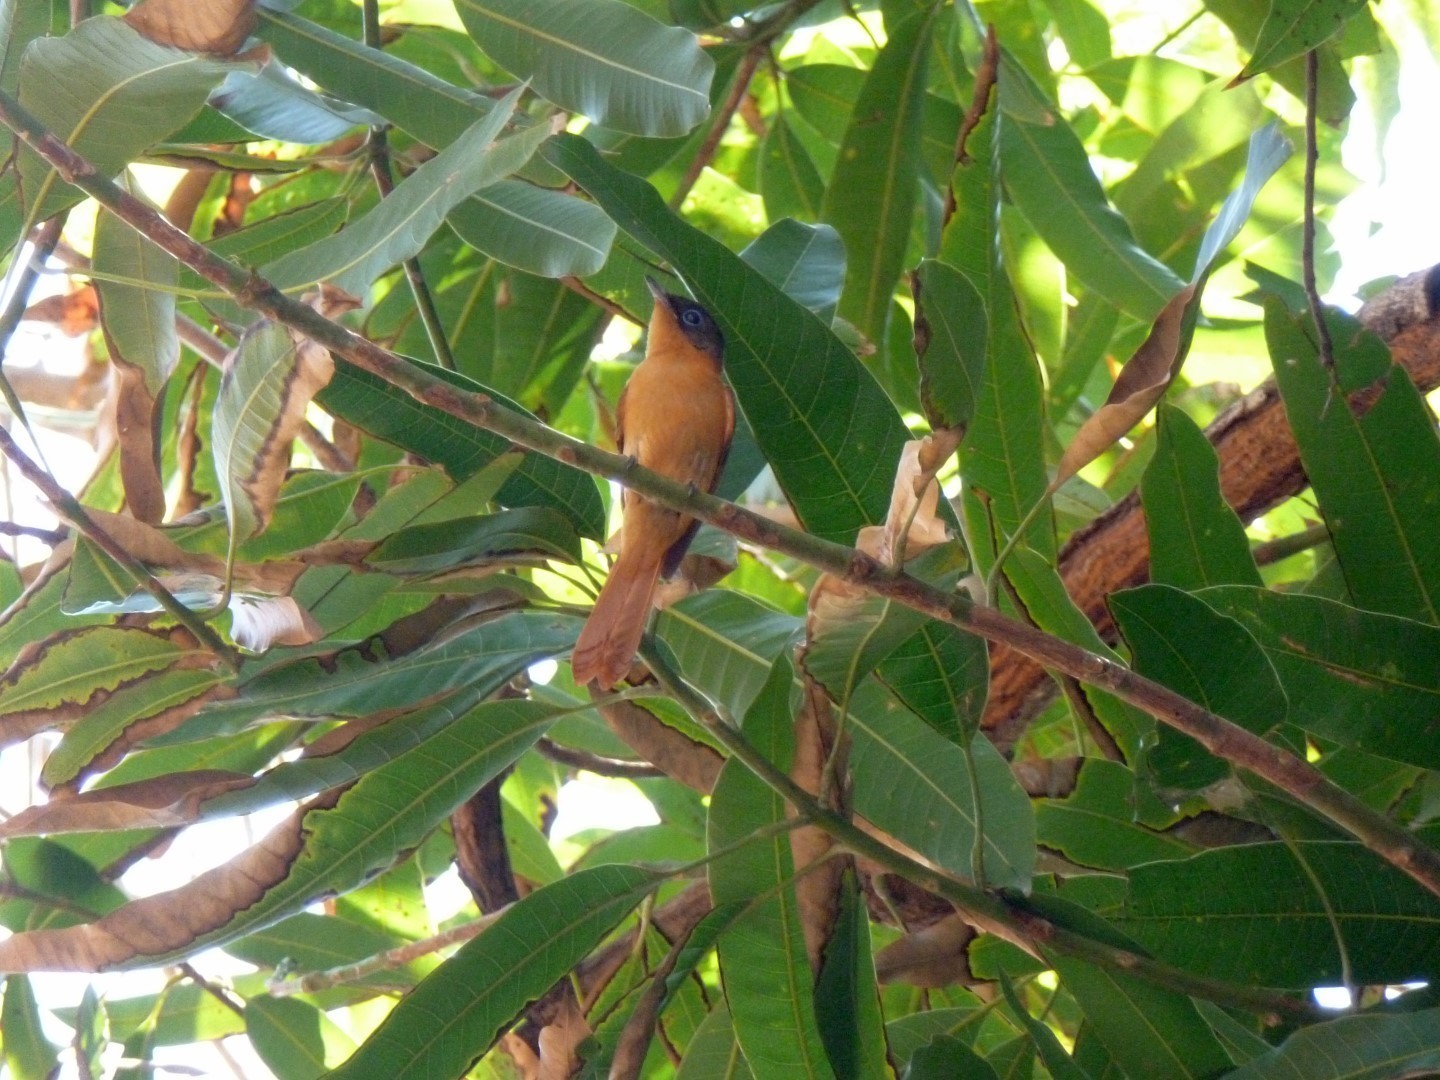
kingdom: Animalia
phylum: Chordata
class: Aves
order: Passeriformes
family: Monarchidae
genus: Terpsiphone
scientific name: Terpsiphone mutata
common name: Malagasy paradise flycatcher
